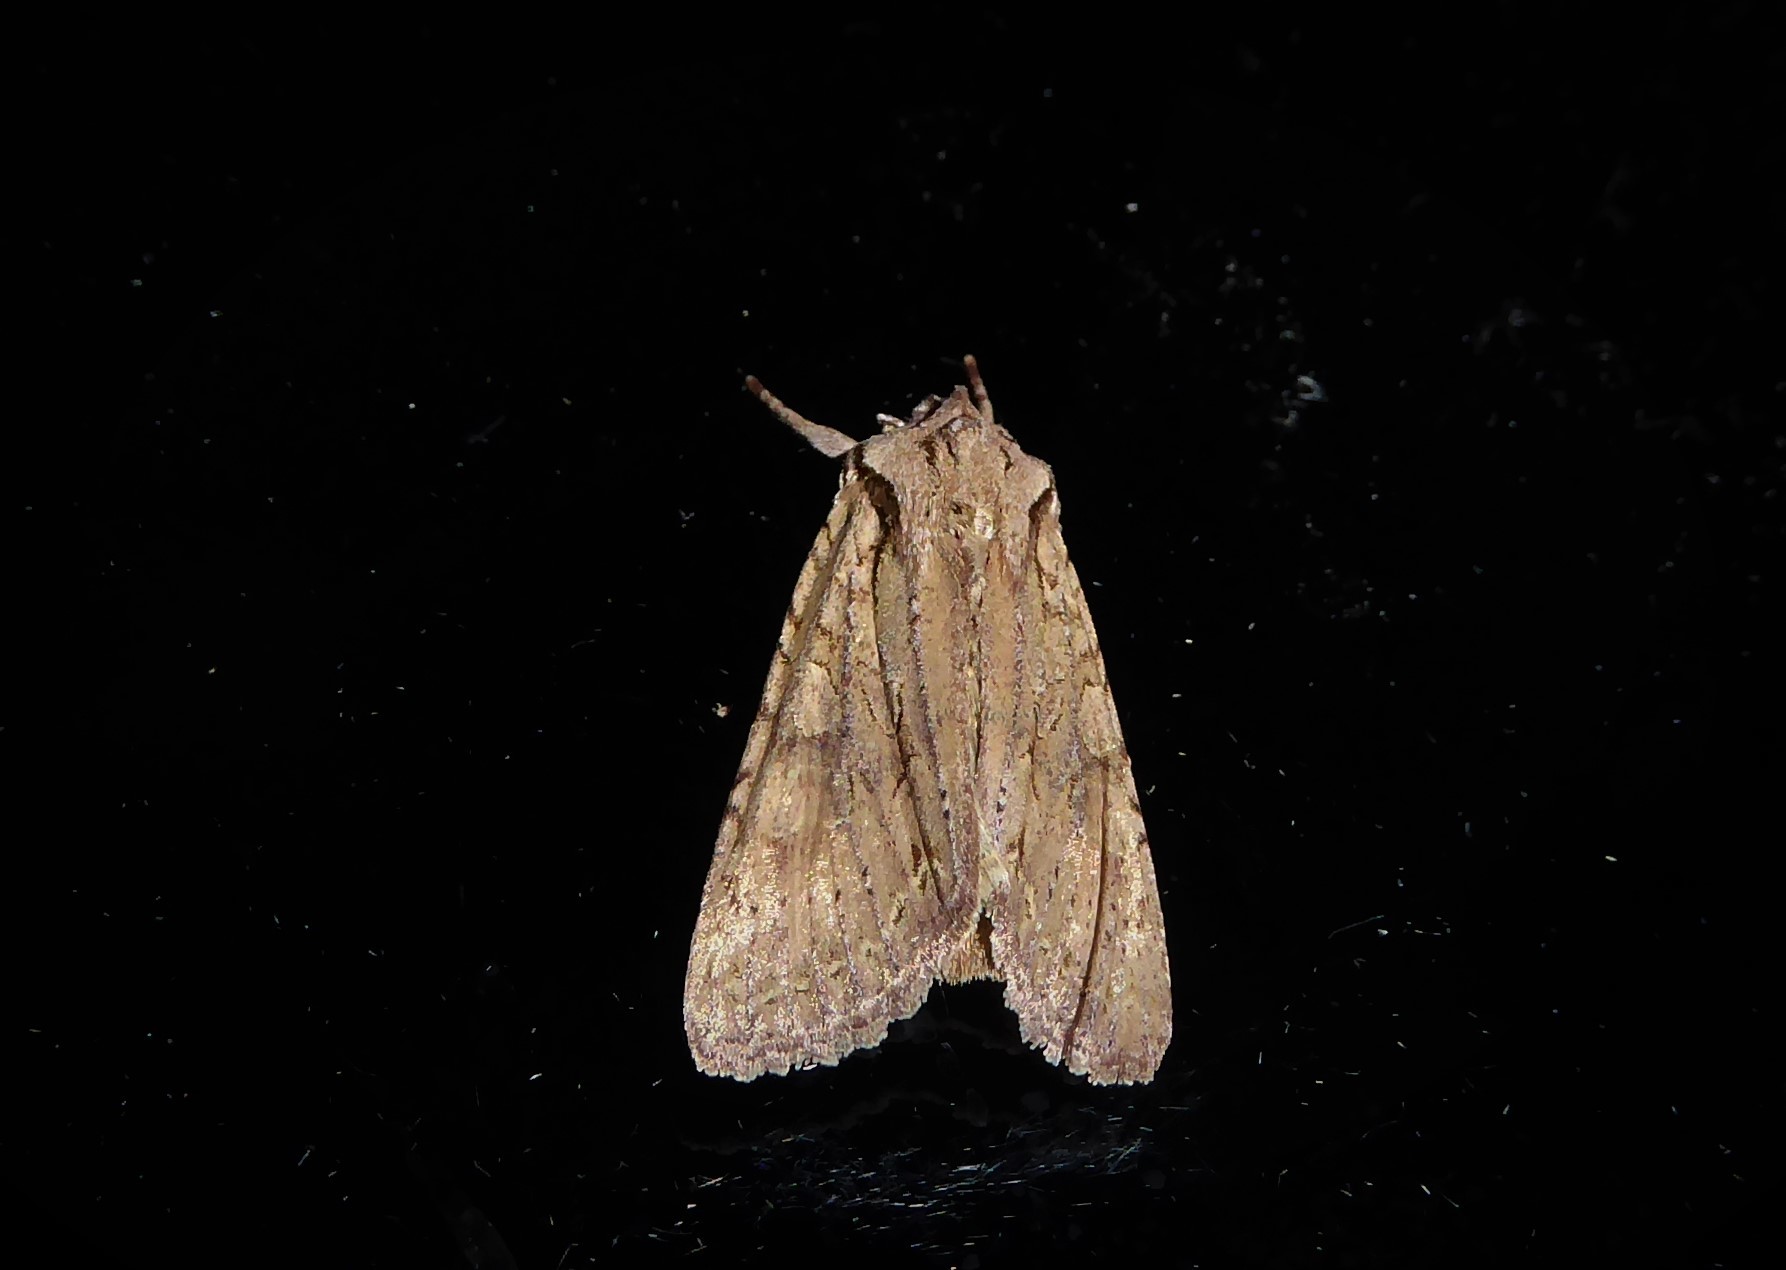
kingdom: Animalia
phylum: Arthropoda
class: Insecta
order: Lepidoptera
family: Noctuidae
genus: Ichneutica
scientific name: Ichneutica
